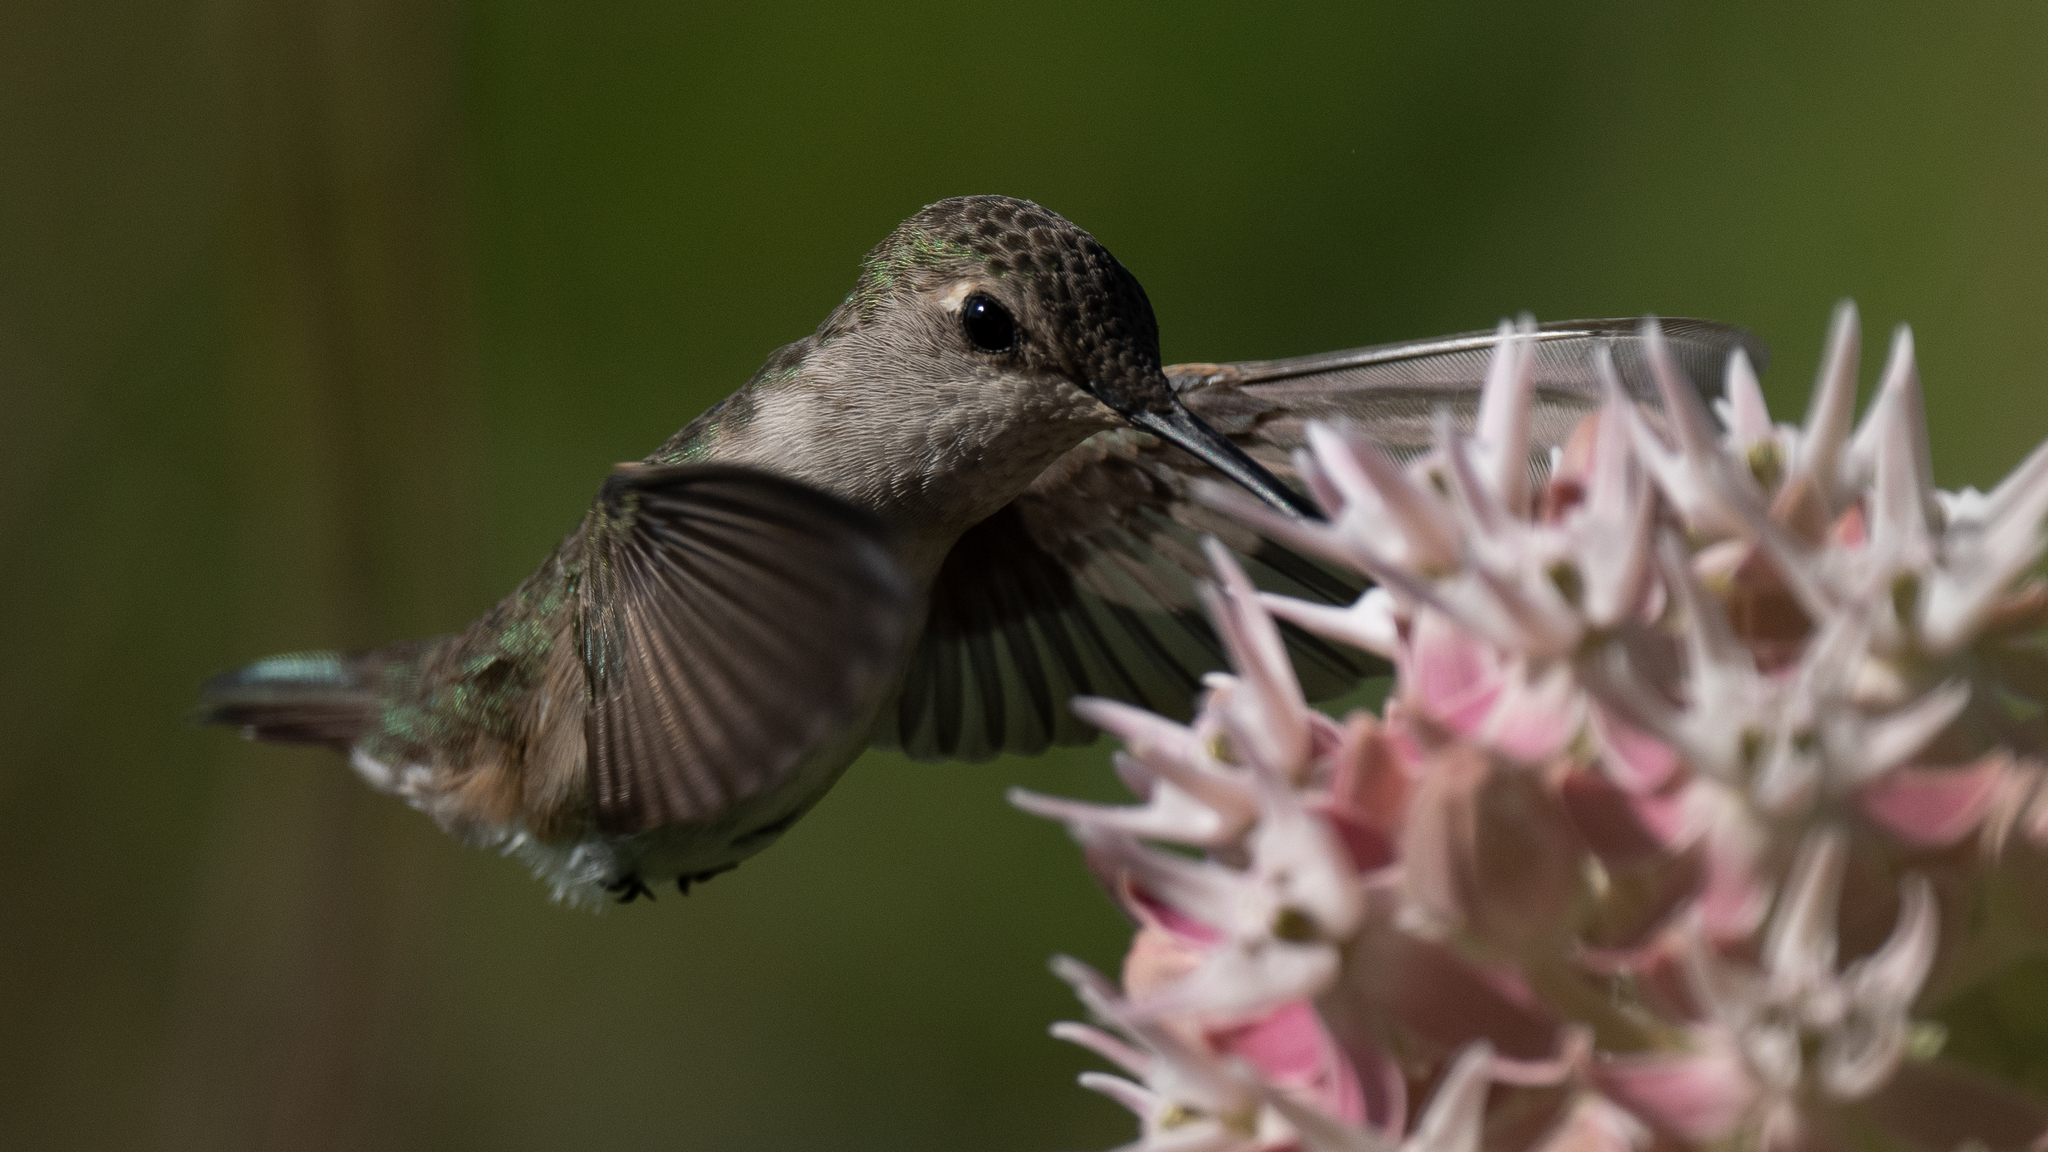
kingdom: Animalia
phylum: Chordata
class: Aves
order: Apodiformes
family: Trochilidae
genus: Archilochus
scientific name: Archilochus alexandri
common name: Black-chinned hummingbird
